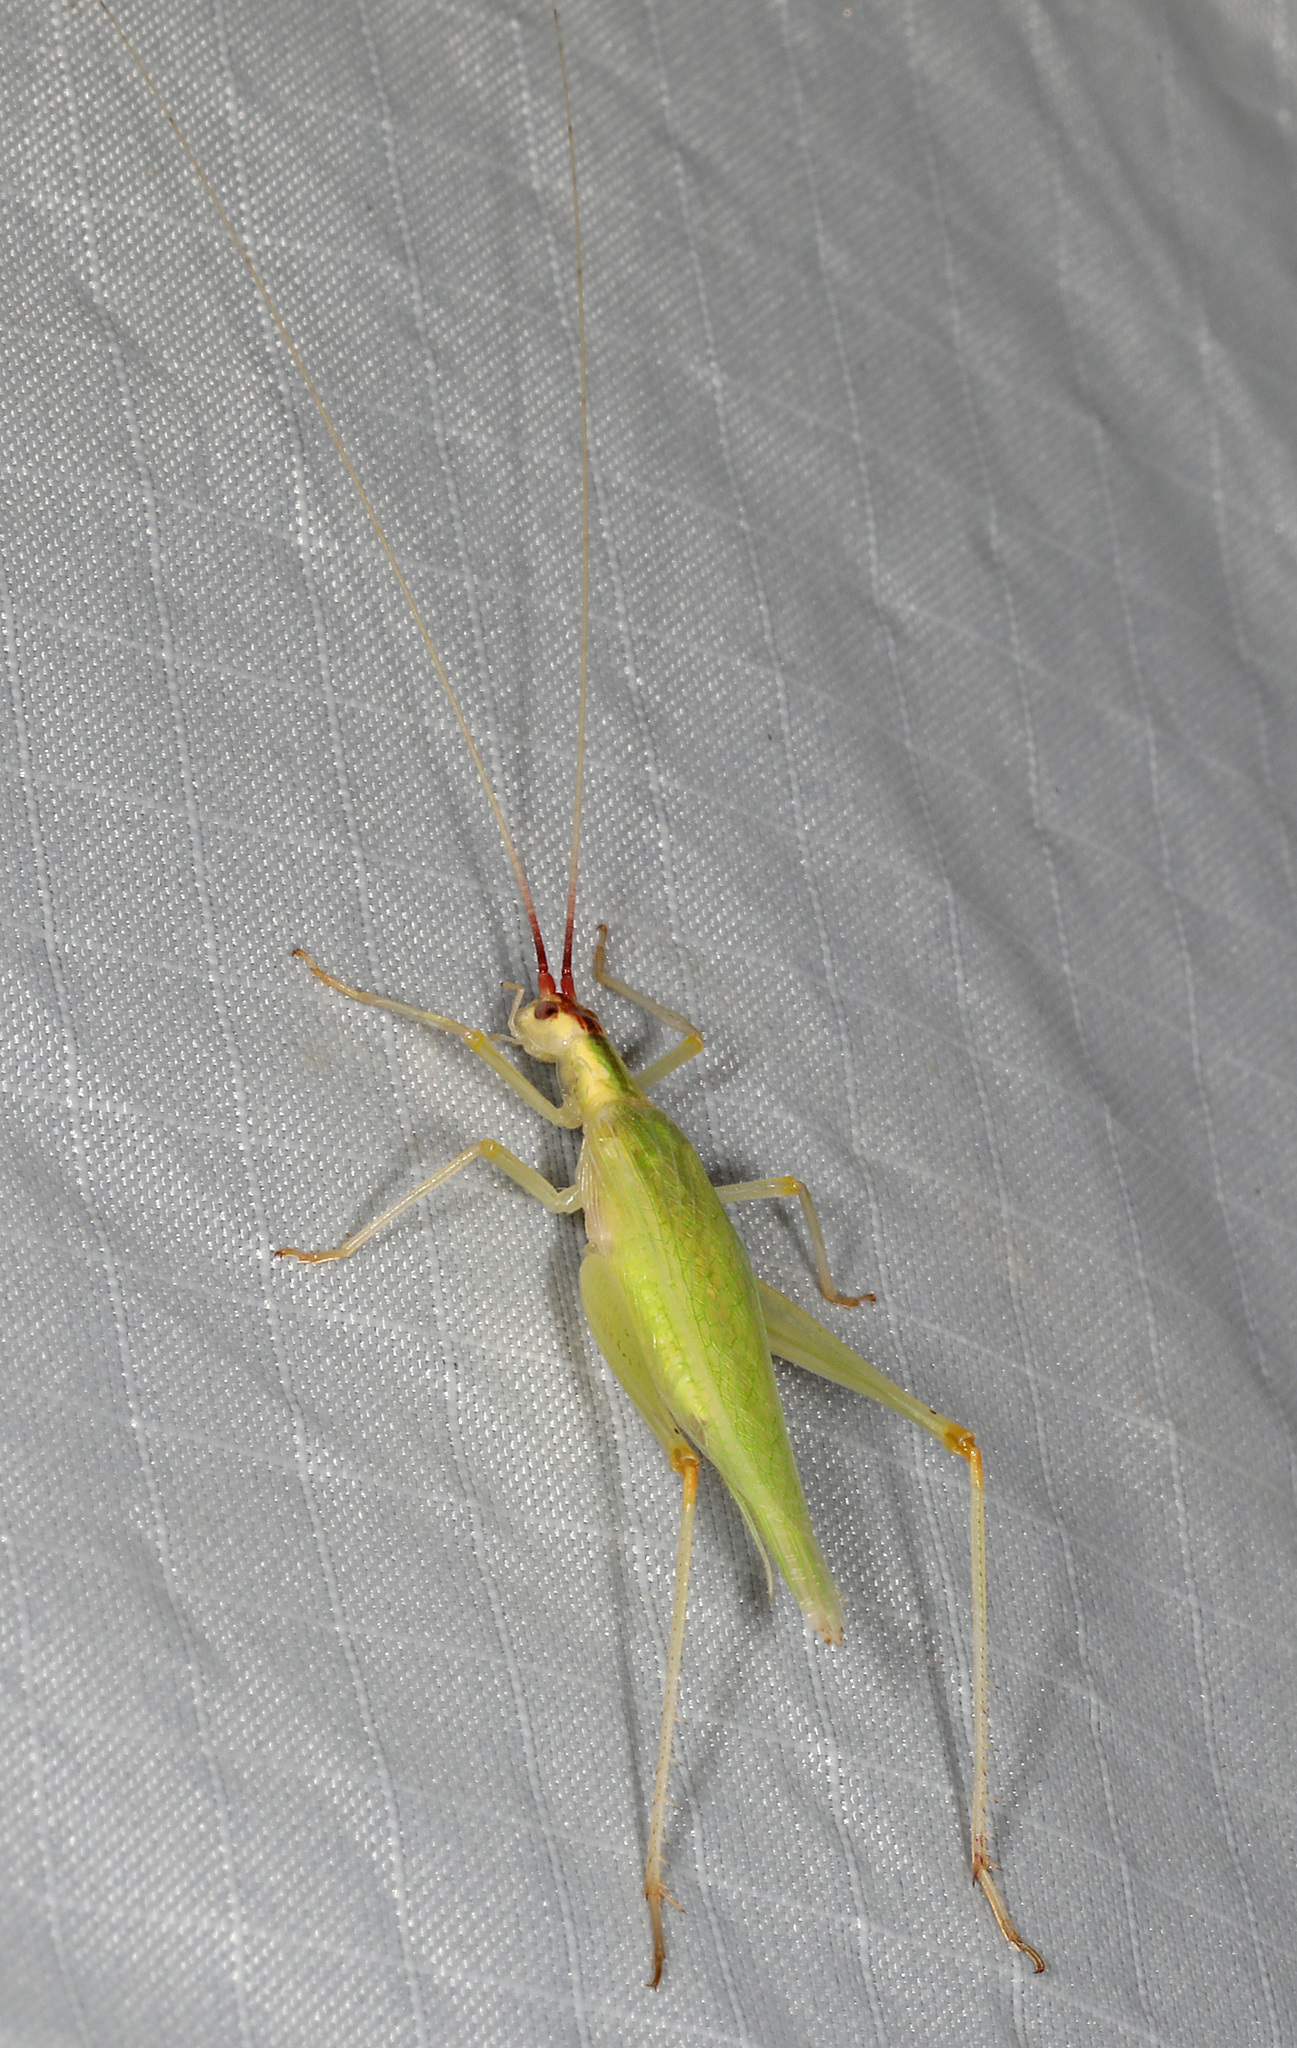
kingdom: Animalia
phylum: Arthropoda
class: Insecta
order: Orthoptera
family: Gryllidae
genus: Oecanthus
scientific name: Oecanthus latipennis
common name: Broad-winged tree cricket
